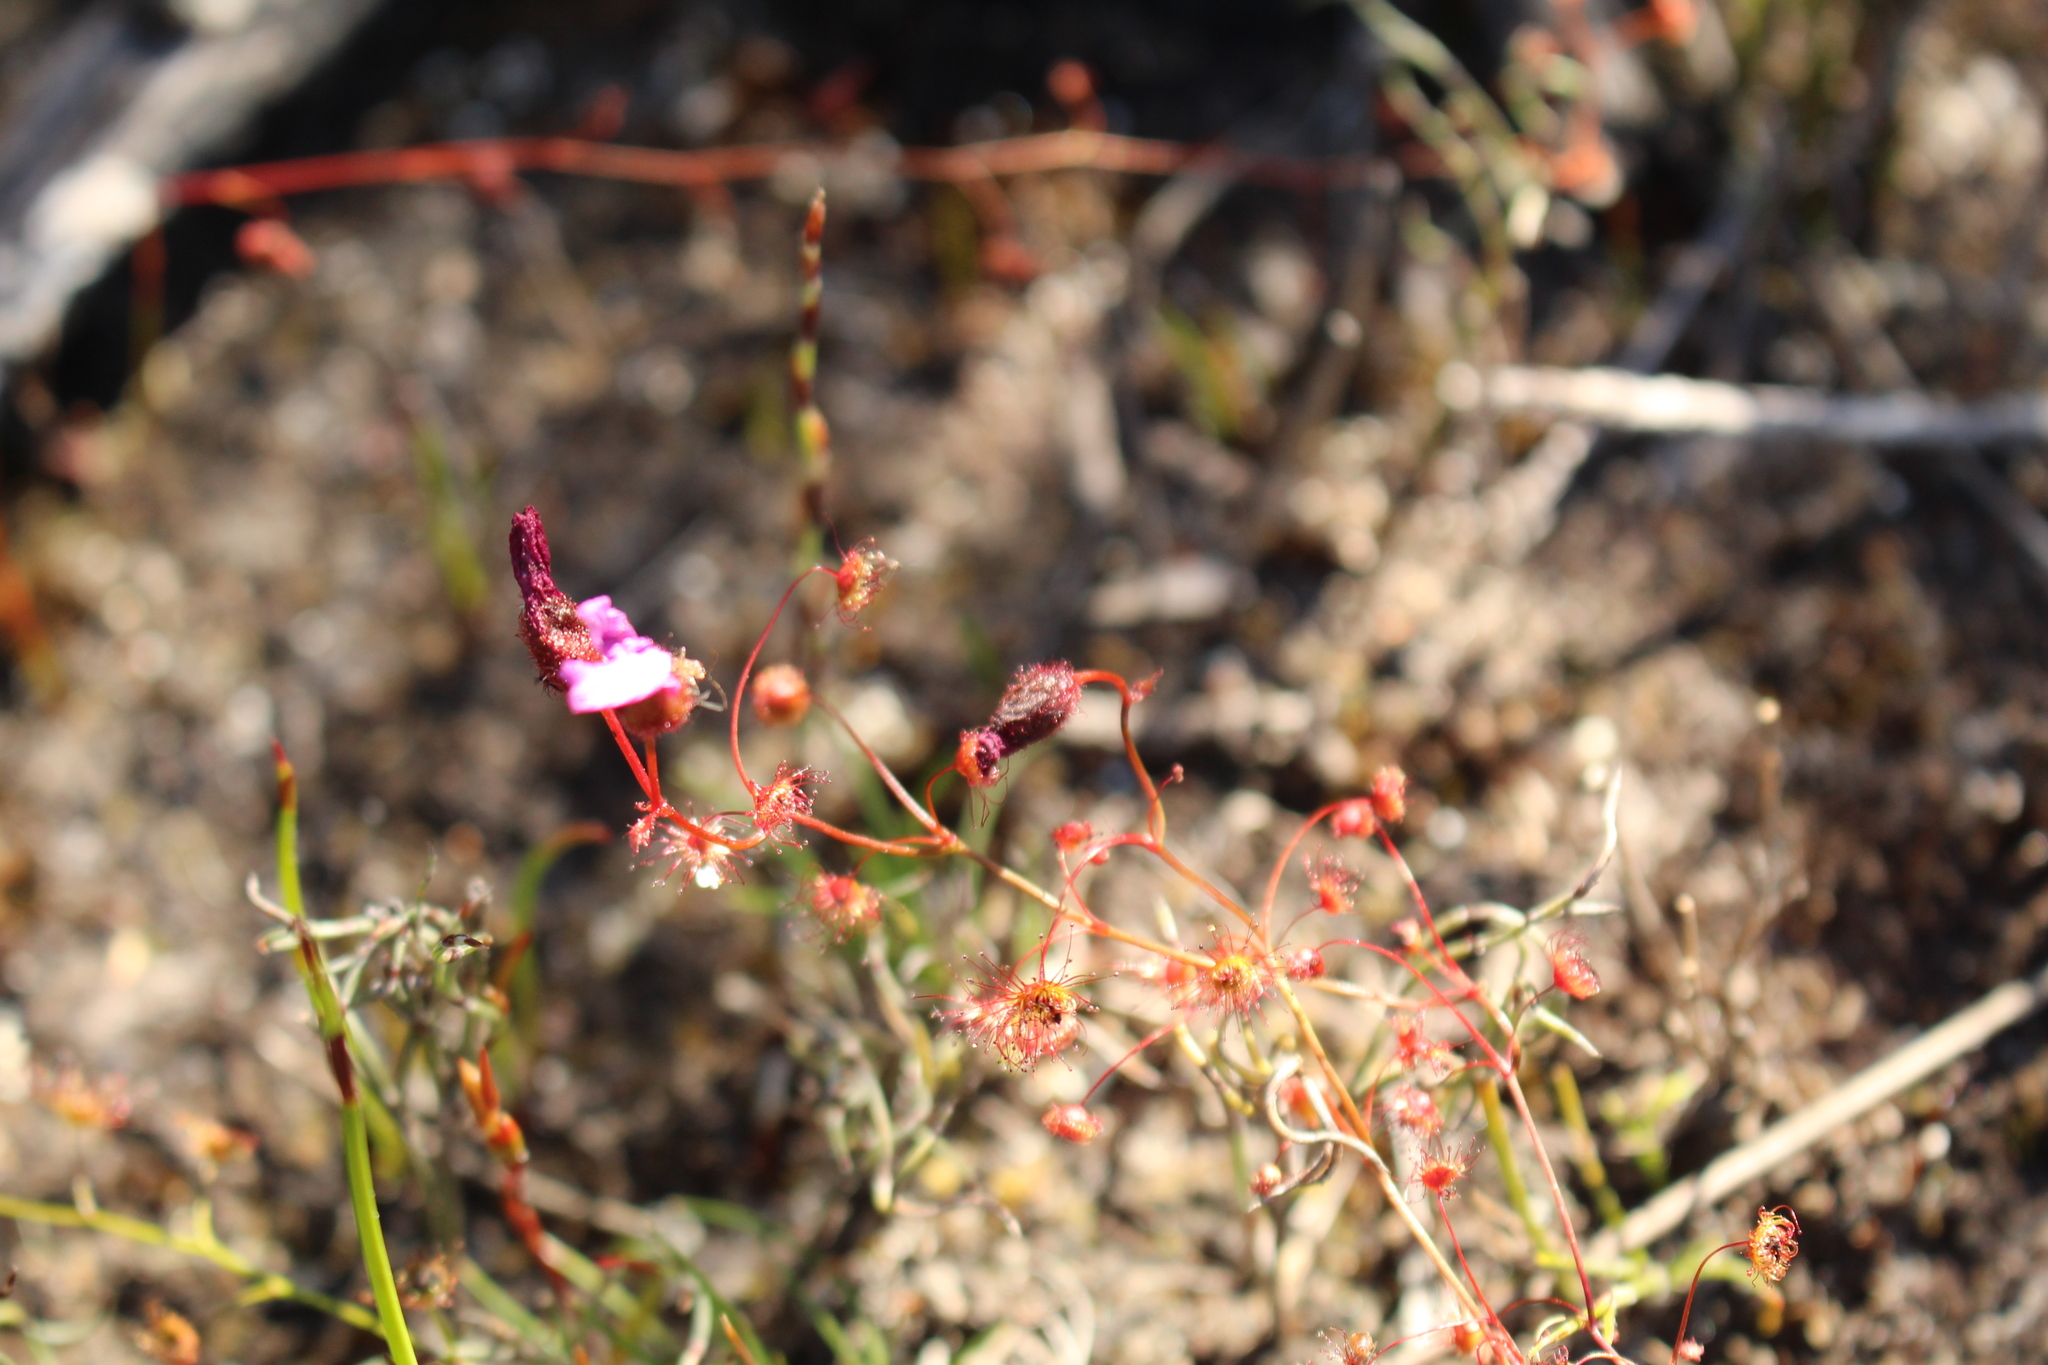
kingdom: Plantae
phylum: Tracheophyta
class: Magnoliopsida
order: Caryophyllales
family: Droseraceae
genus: Drosera
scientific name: Drosera
